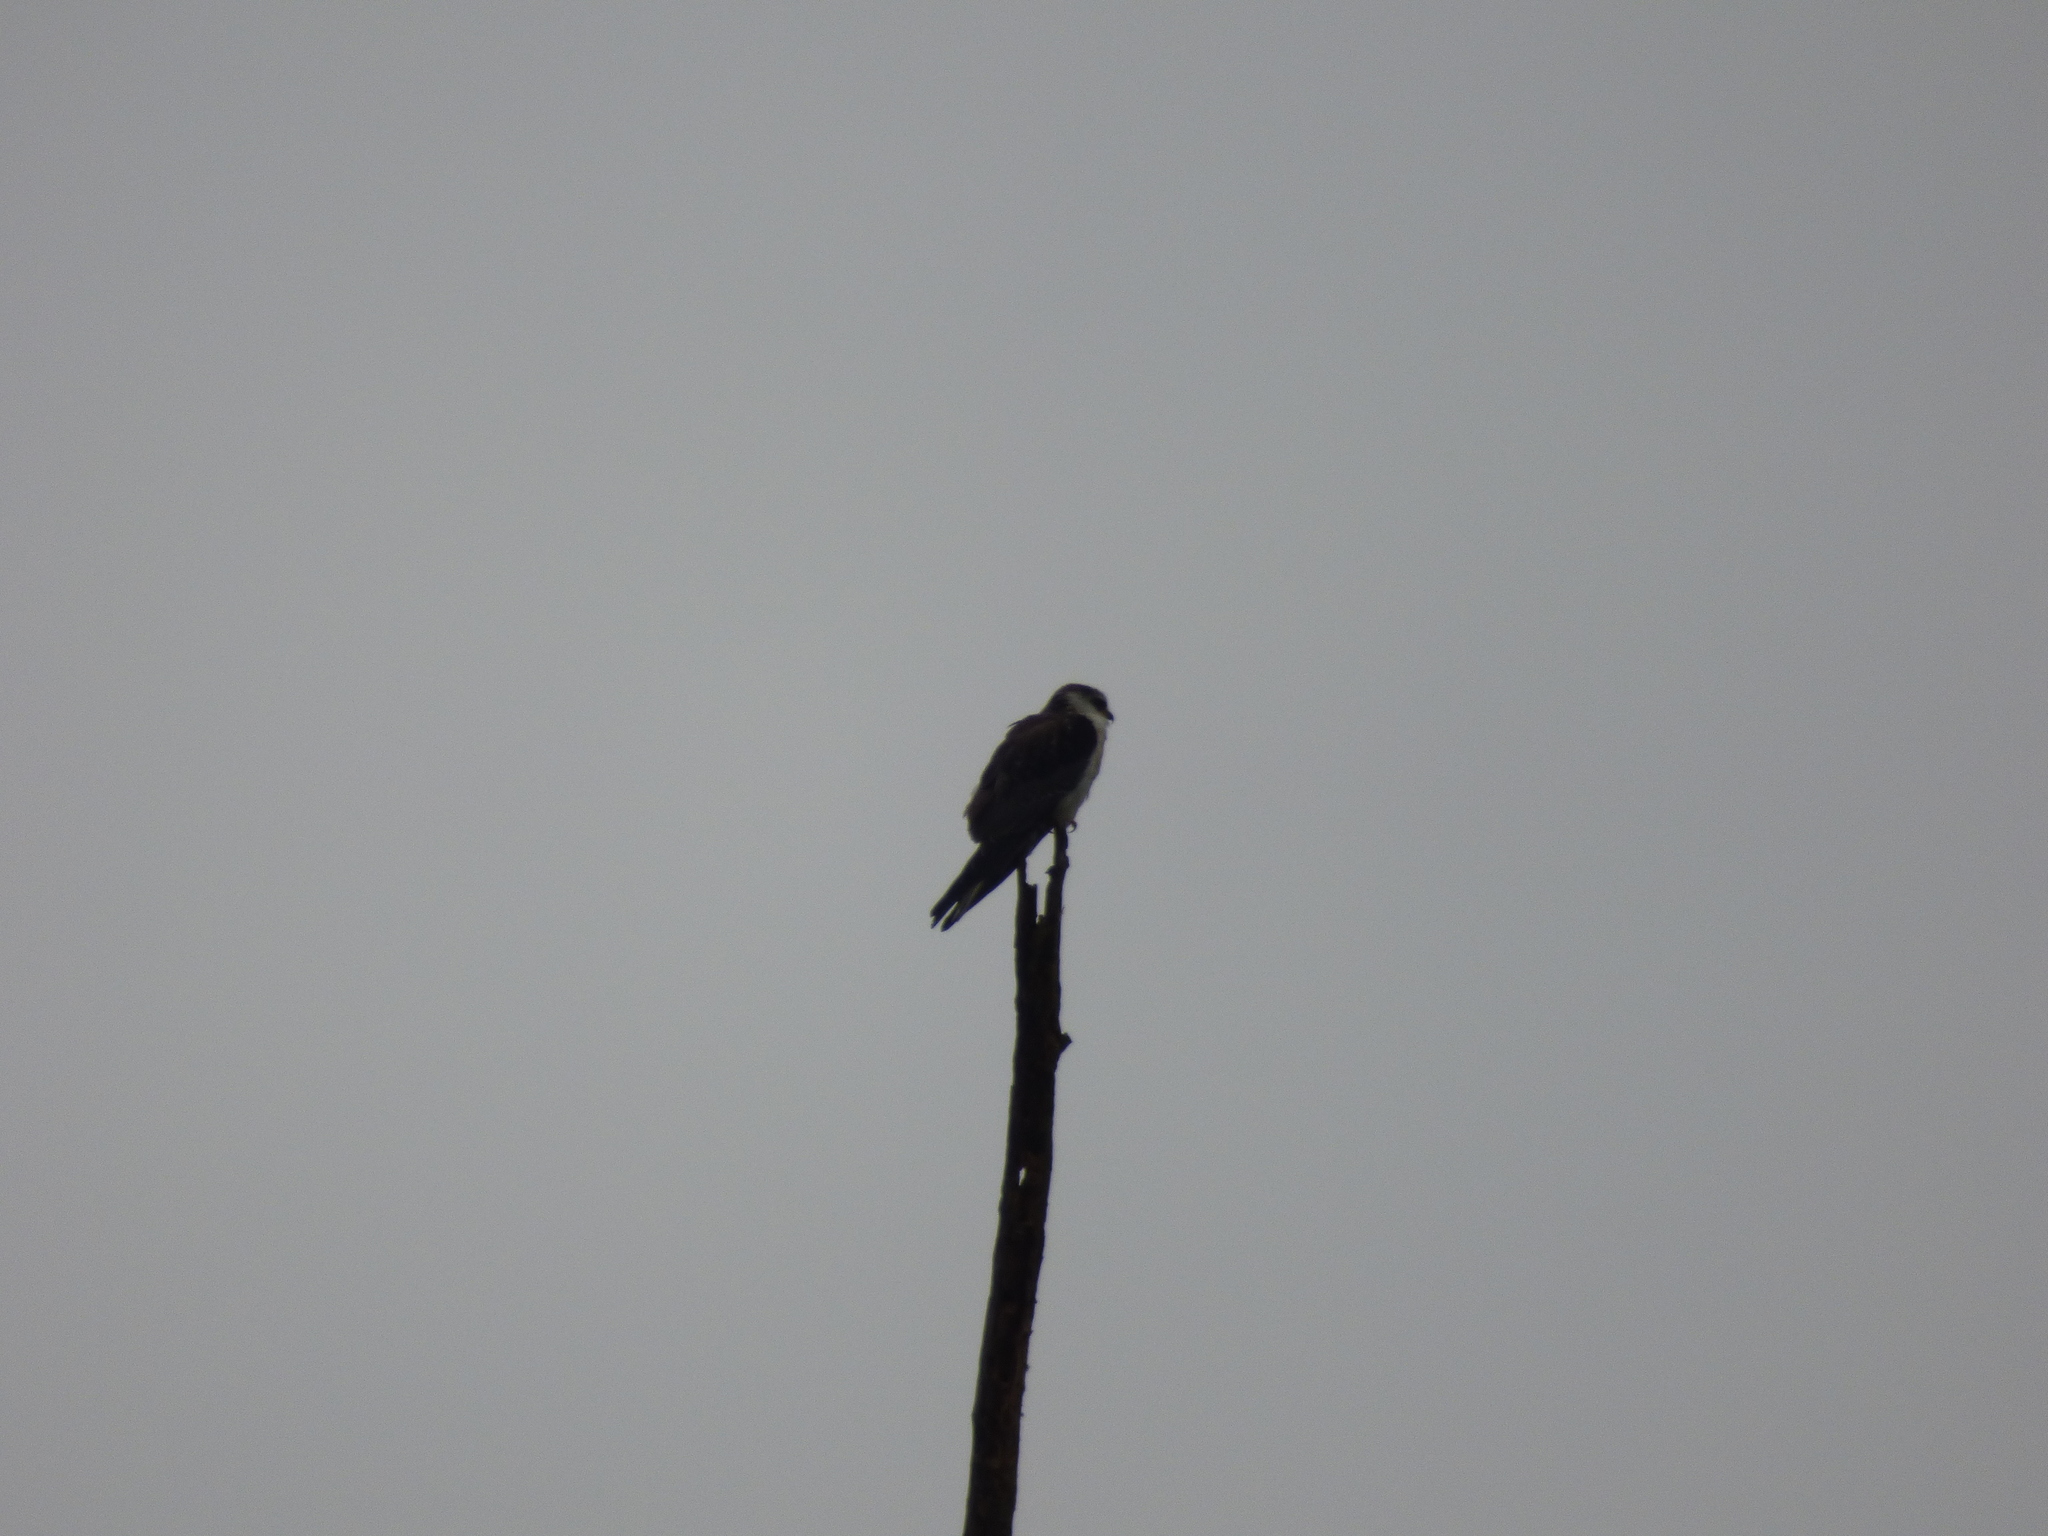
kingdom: Animalia
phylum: Chordata
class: Aves
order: Accipitriformes
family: Accipitridae
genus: Gampsonyx
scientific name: Gampsonyx swainsonii
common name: Pearl kite
